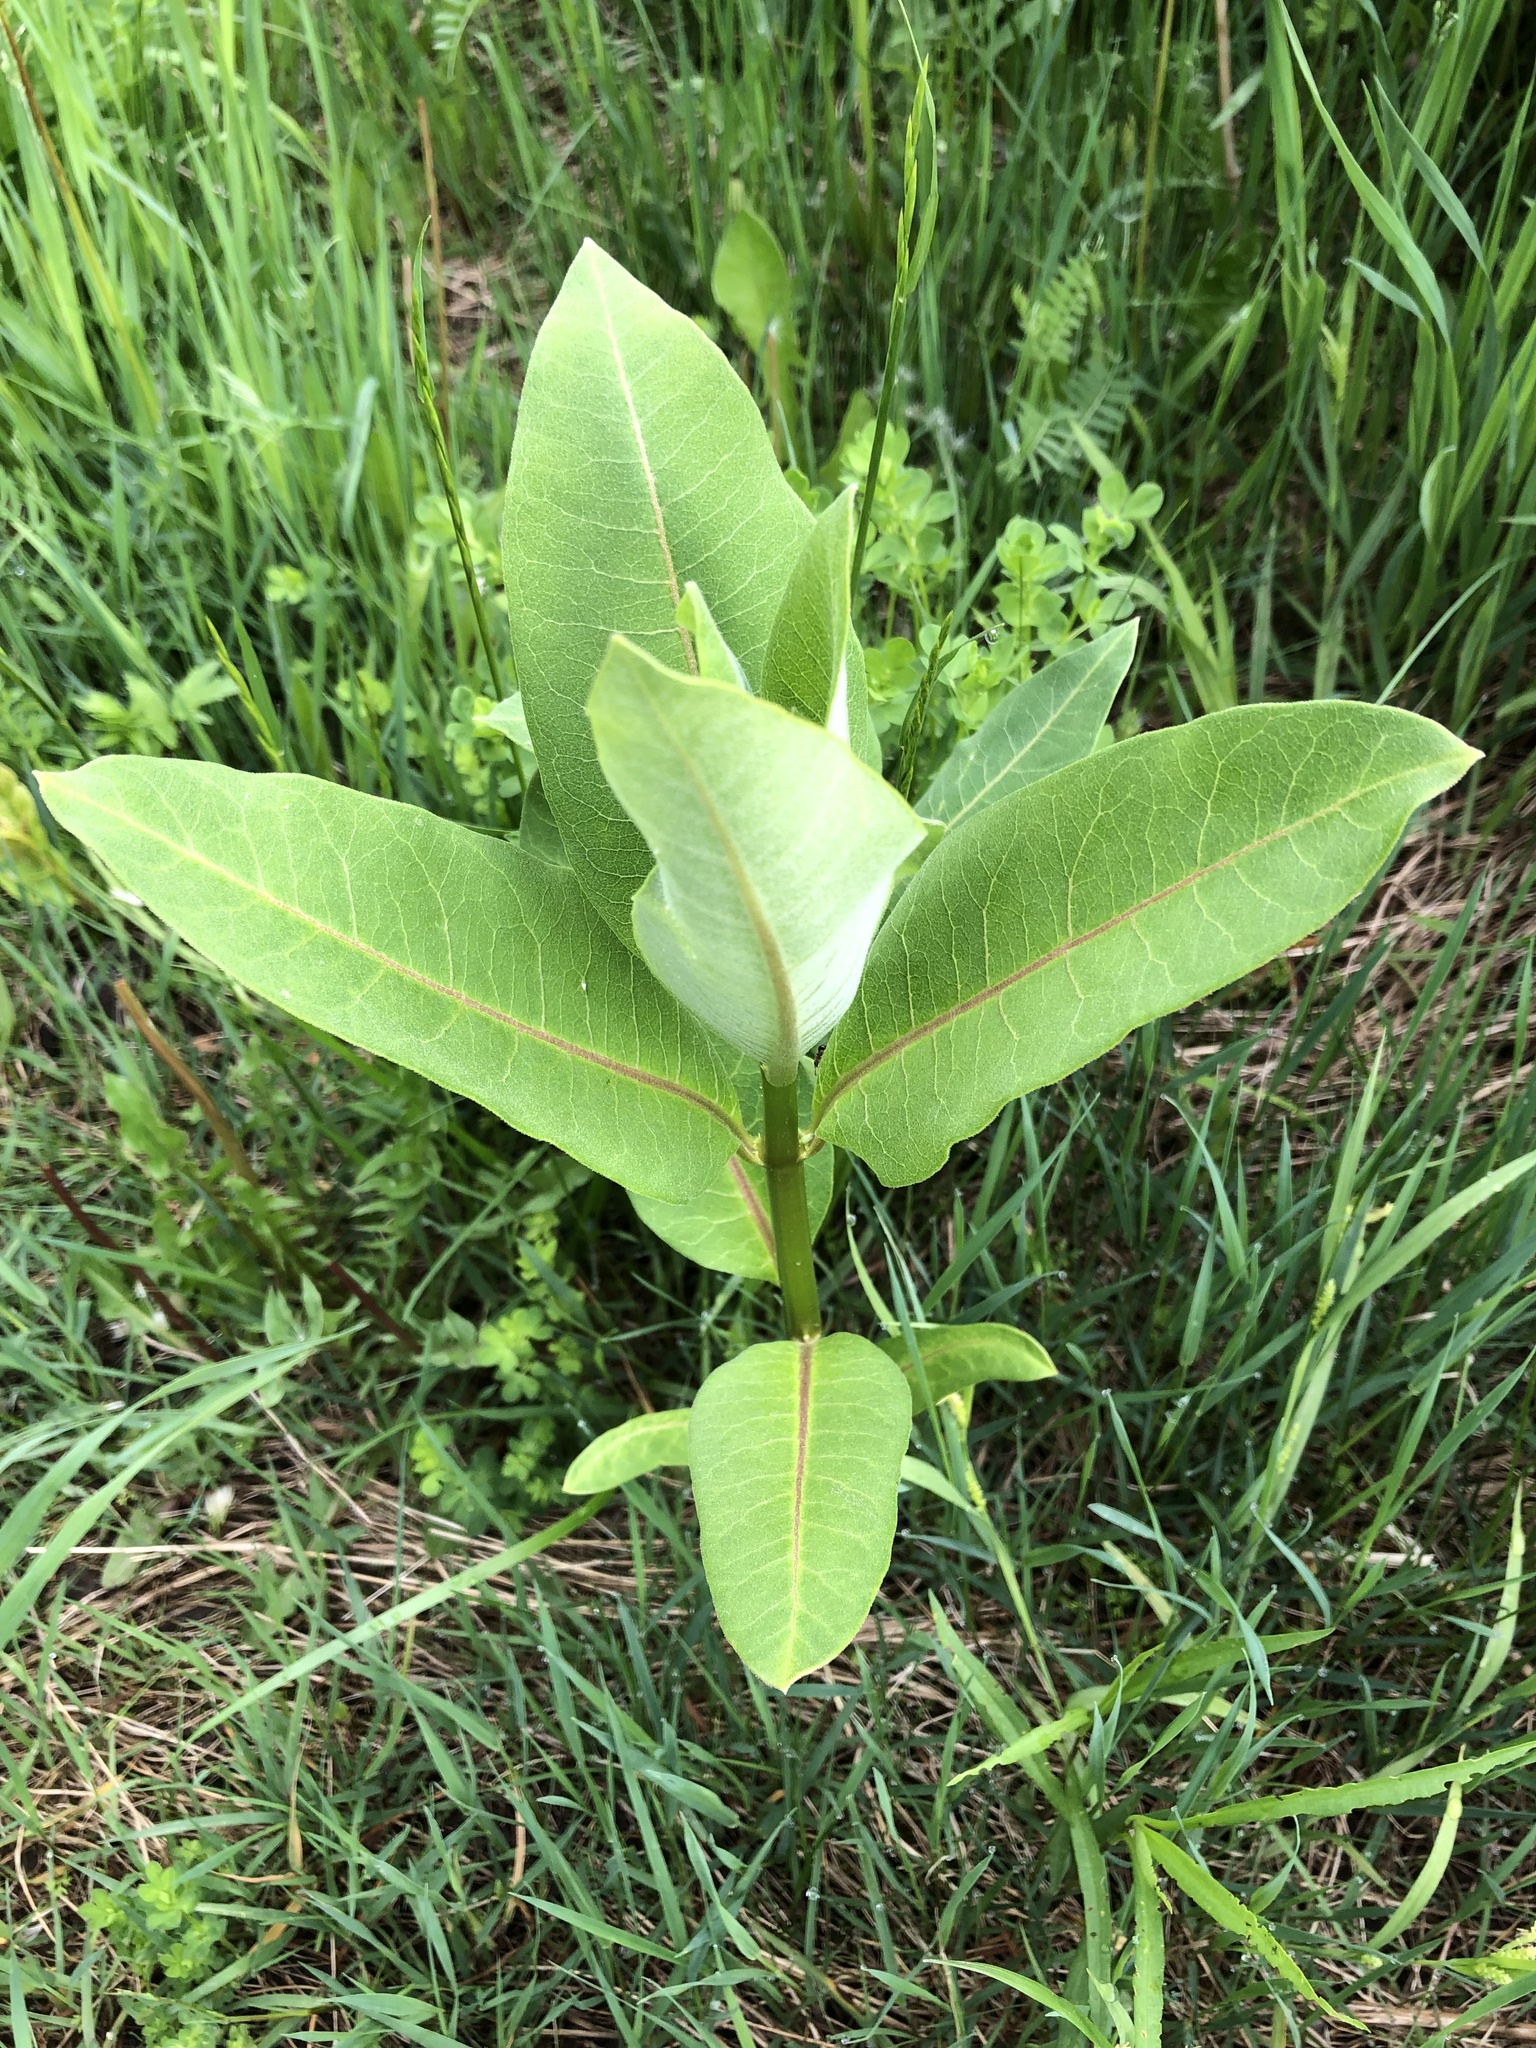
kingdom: Plantae
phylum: Tracheophyta
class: Magnoliopsida
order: Gentianales
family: Apocynaceae
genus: Asclepias
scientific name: Asclepias syriaca
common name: Common milkweed
